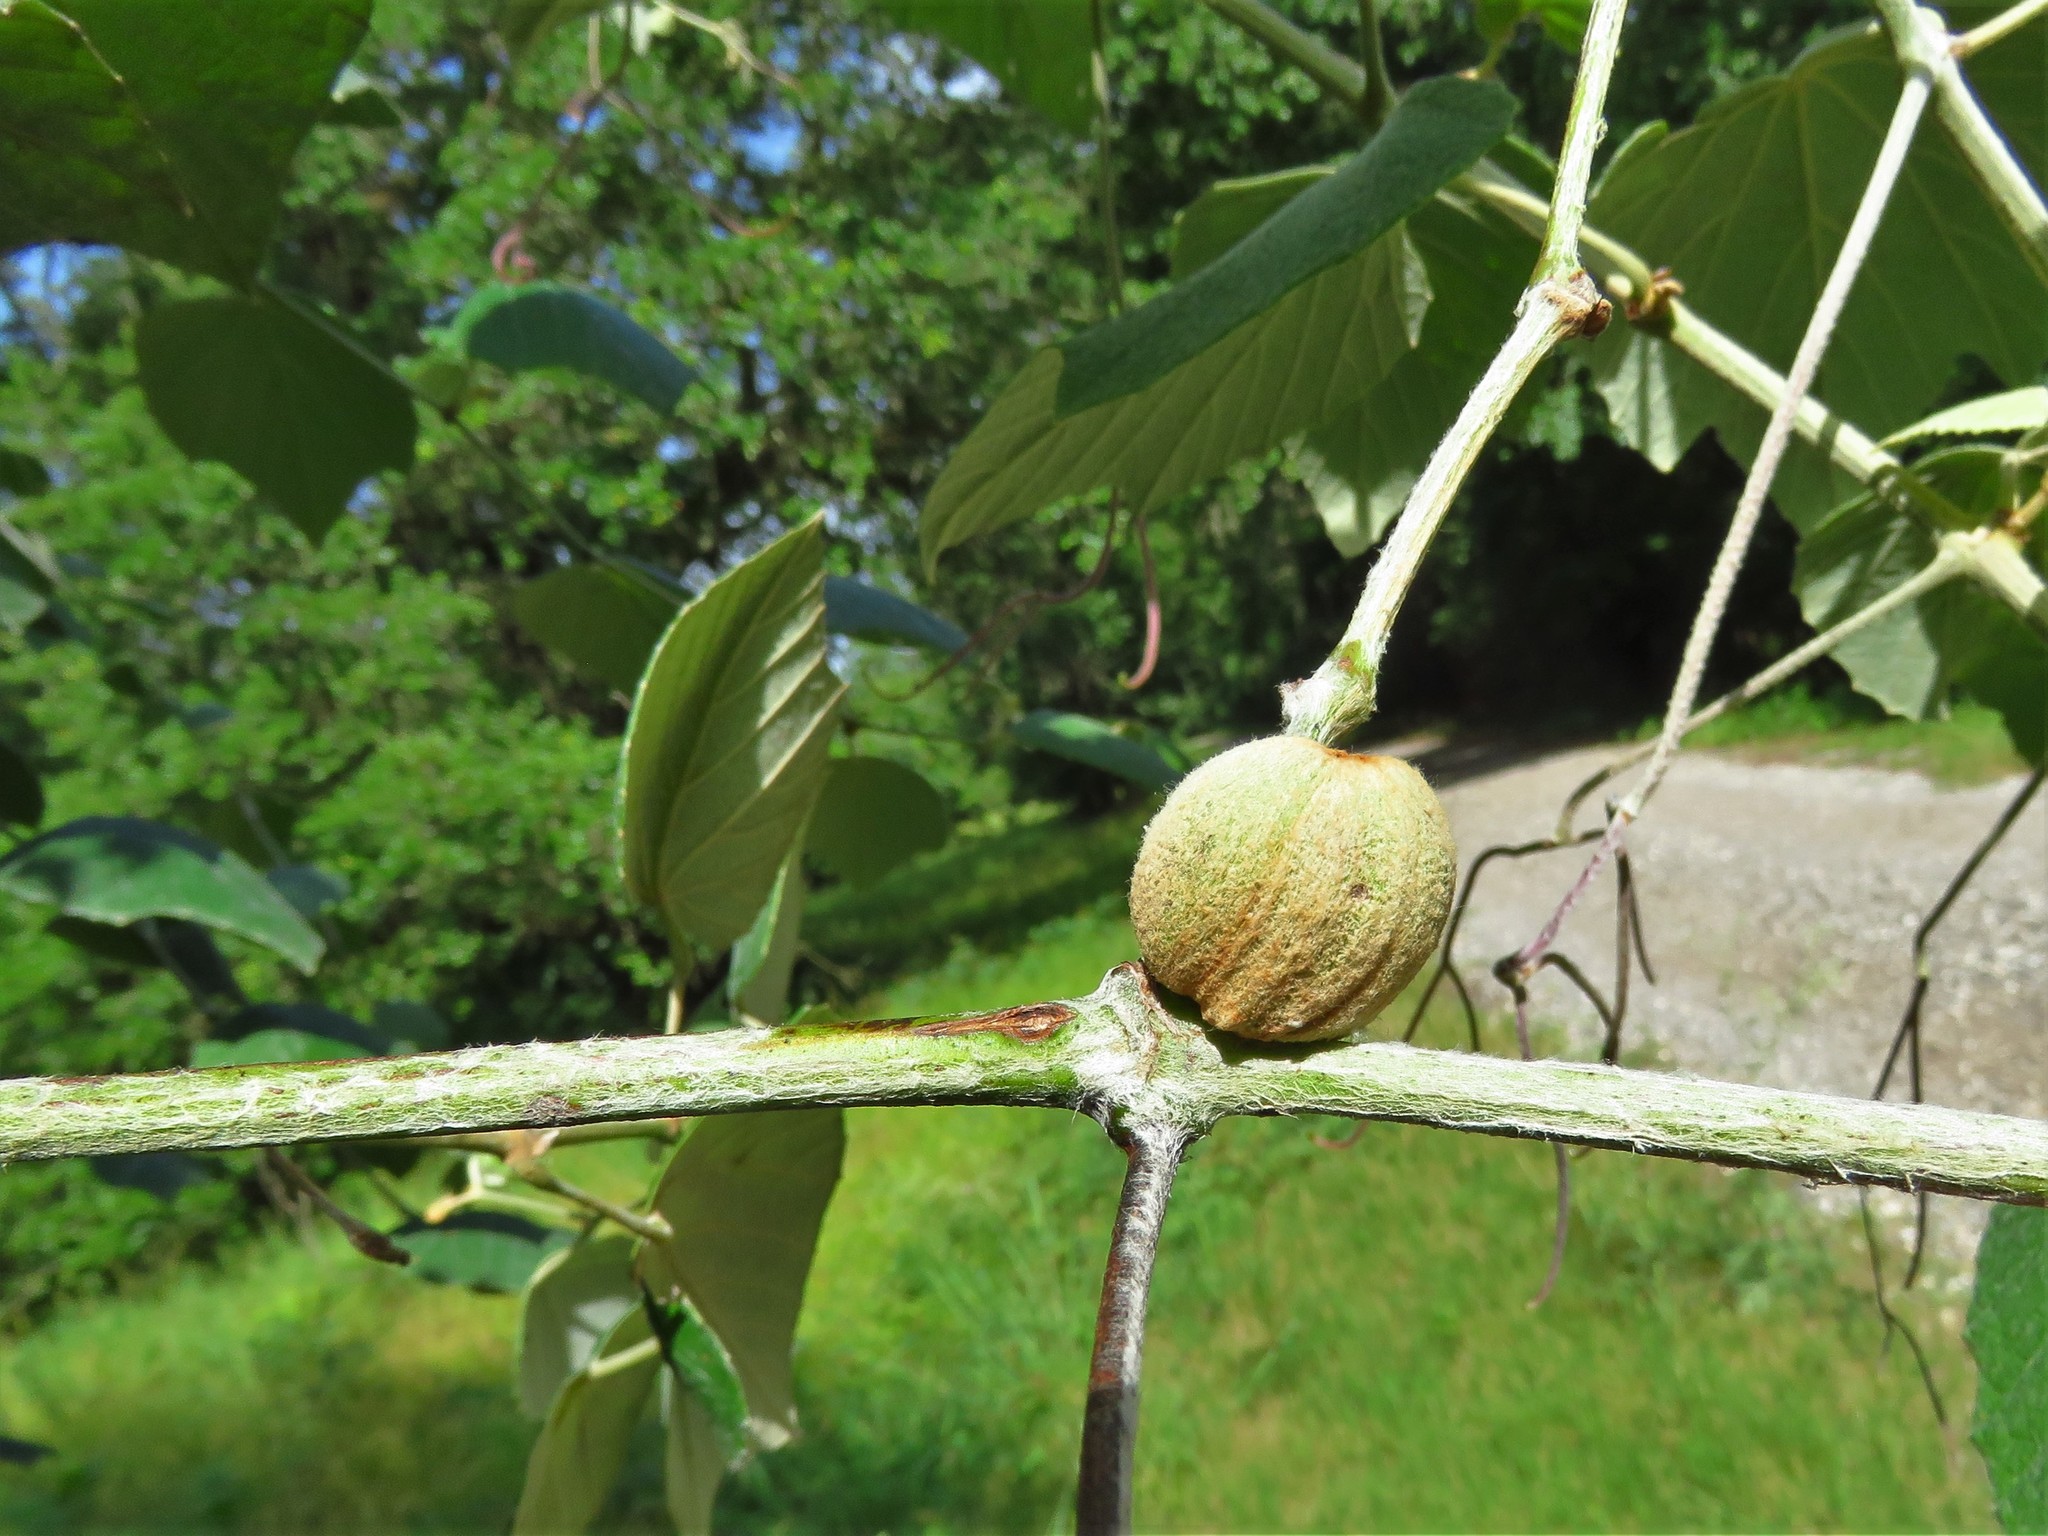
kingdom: Animalia
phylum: Arthropoda
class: Insecta
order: Diptera
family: Cecidomyiidae
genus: Ampelomyia
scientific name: Ampelomyia vitispomum
